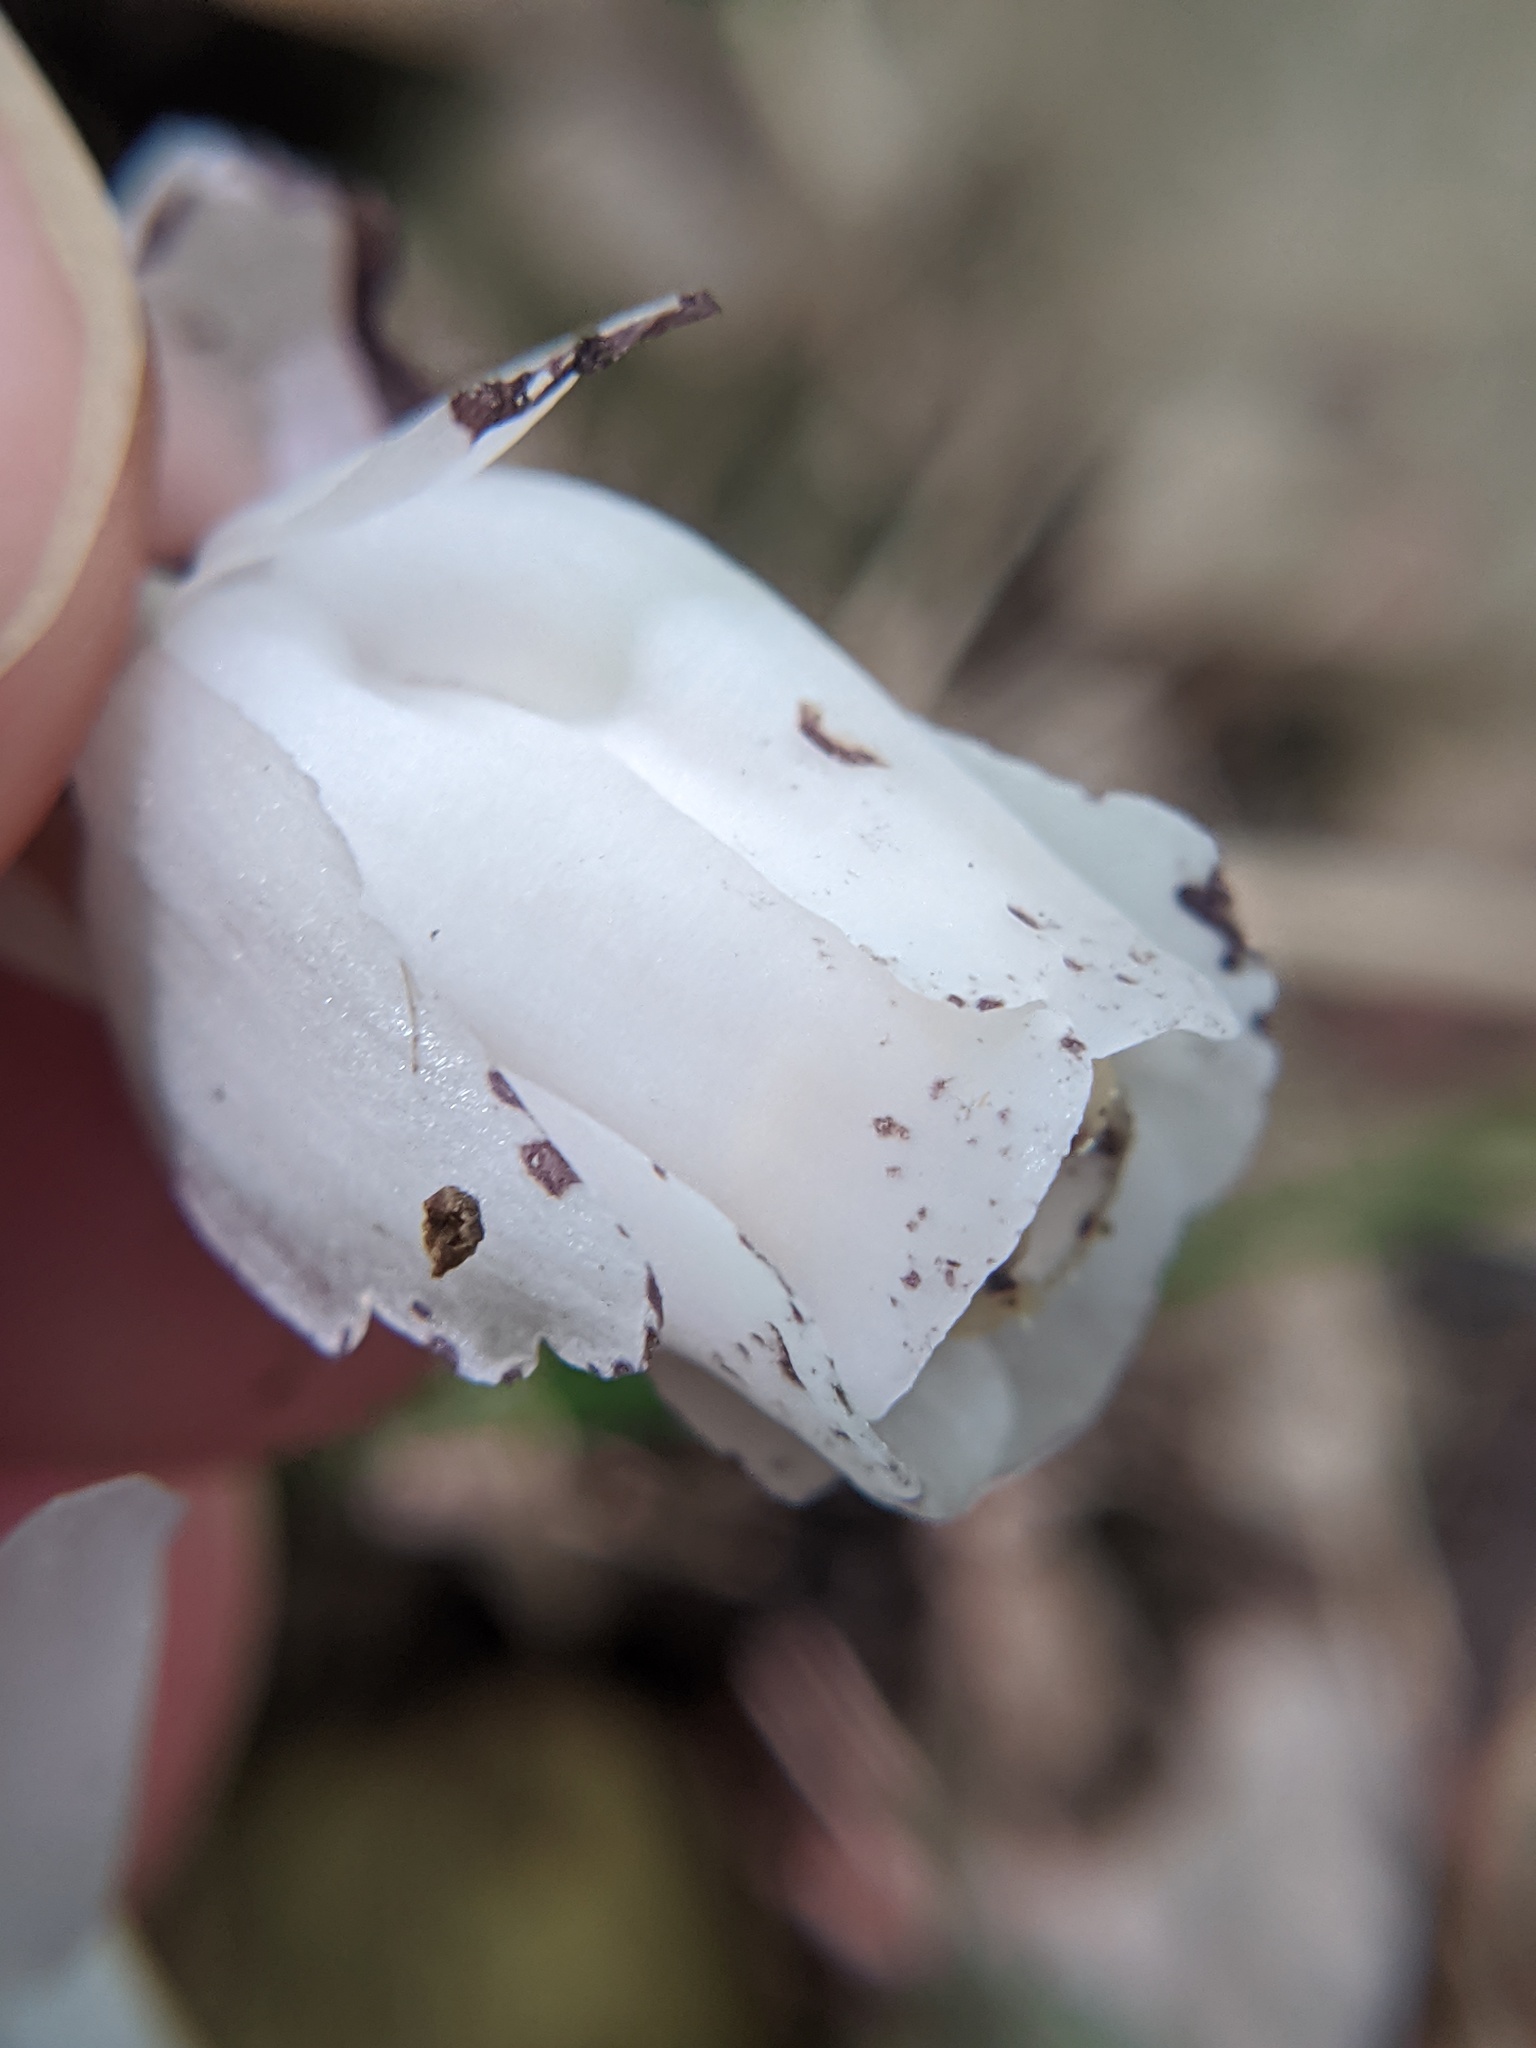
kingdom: Plantae
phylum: Tracheophyta
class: Magnoliopsida
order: Ericales
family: Ericaceae
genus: Monotropa
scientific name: Monotropa uniflora
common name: Convulsion root
